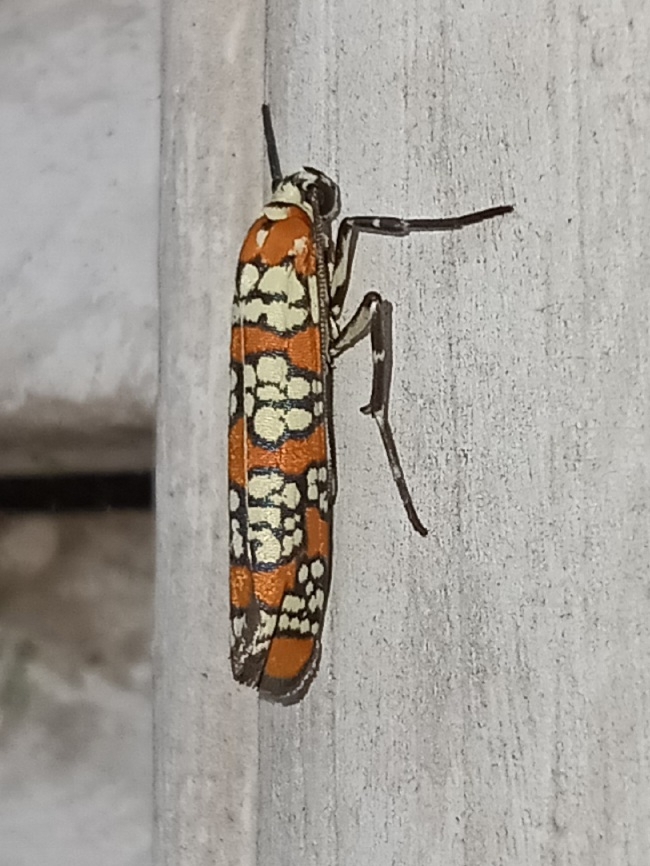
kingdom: Animalia
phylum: Arthropoda
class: Insecta
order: Lepidoptera
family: Attevidae
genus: Atteva
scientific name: Atteva punctella
